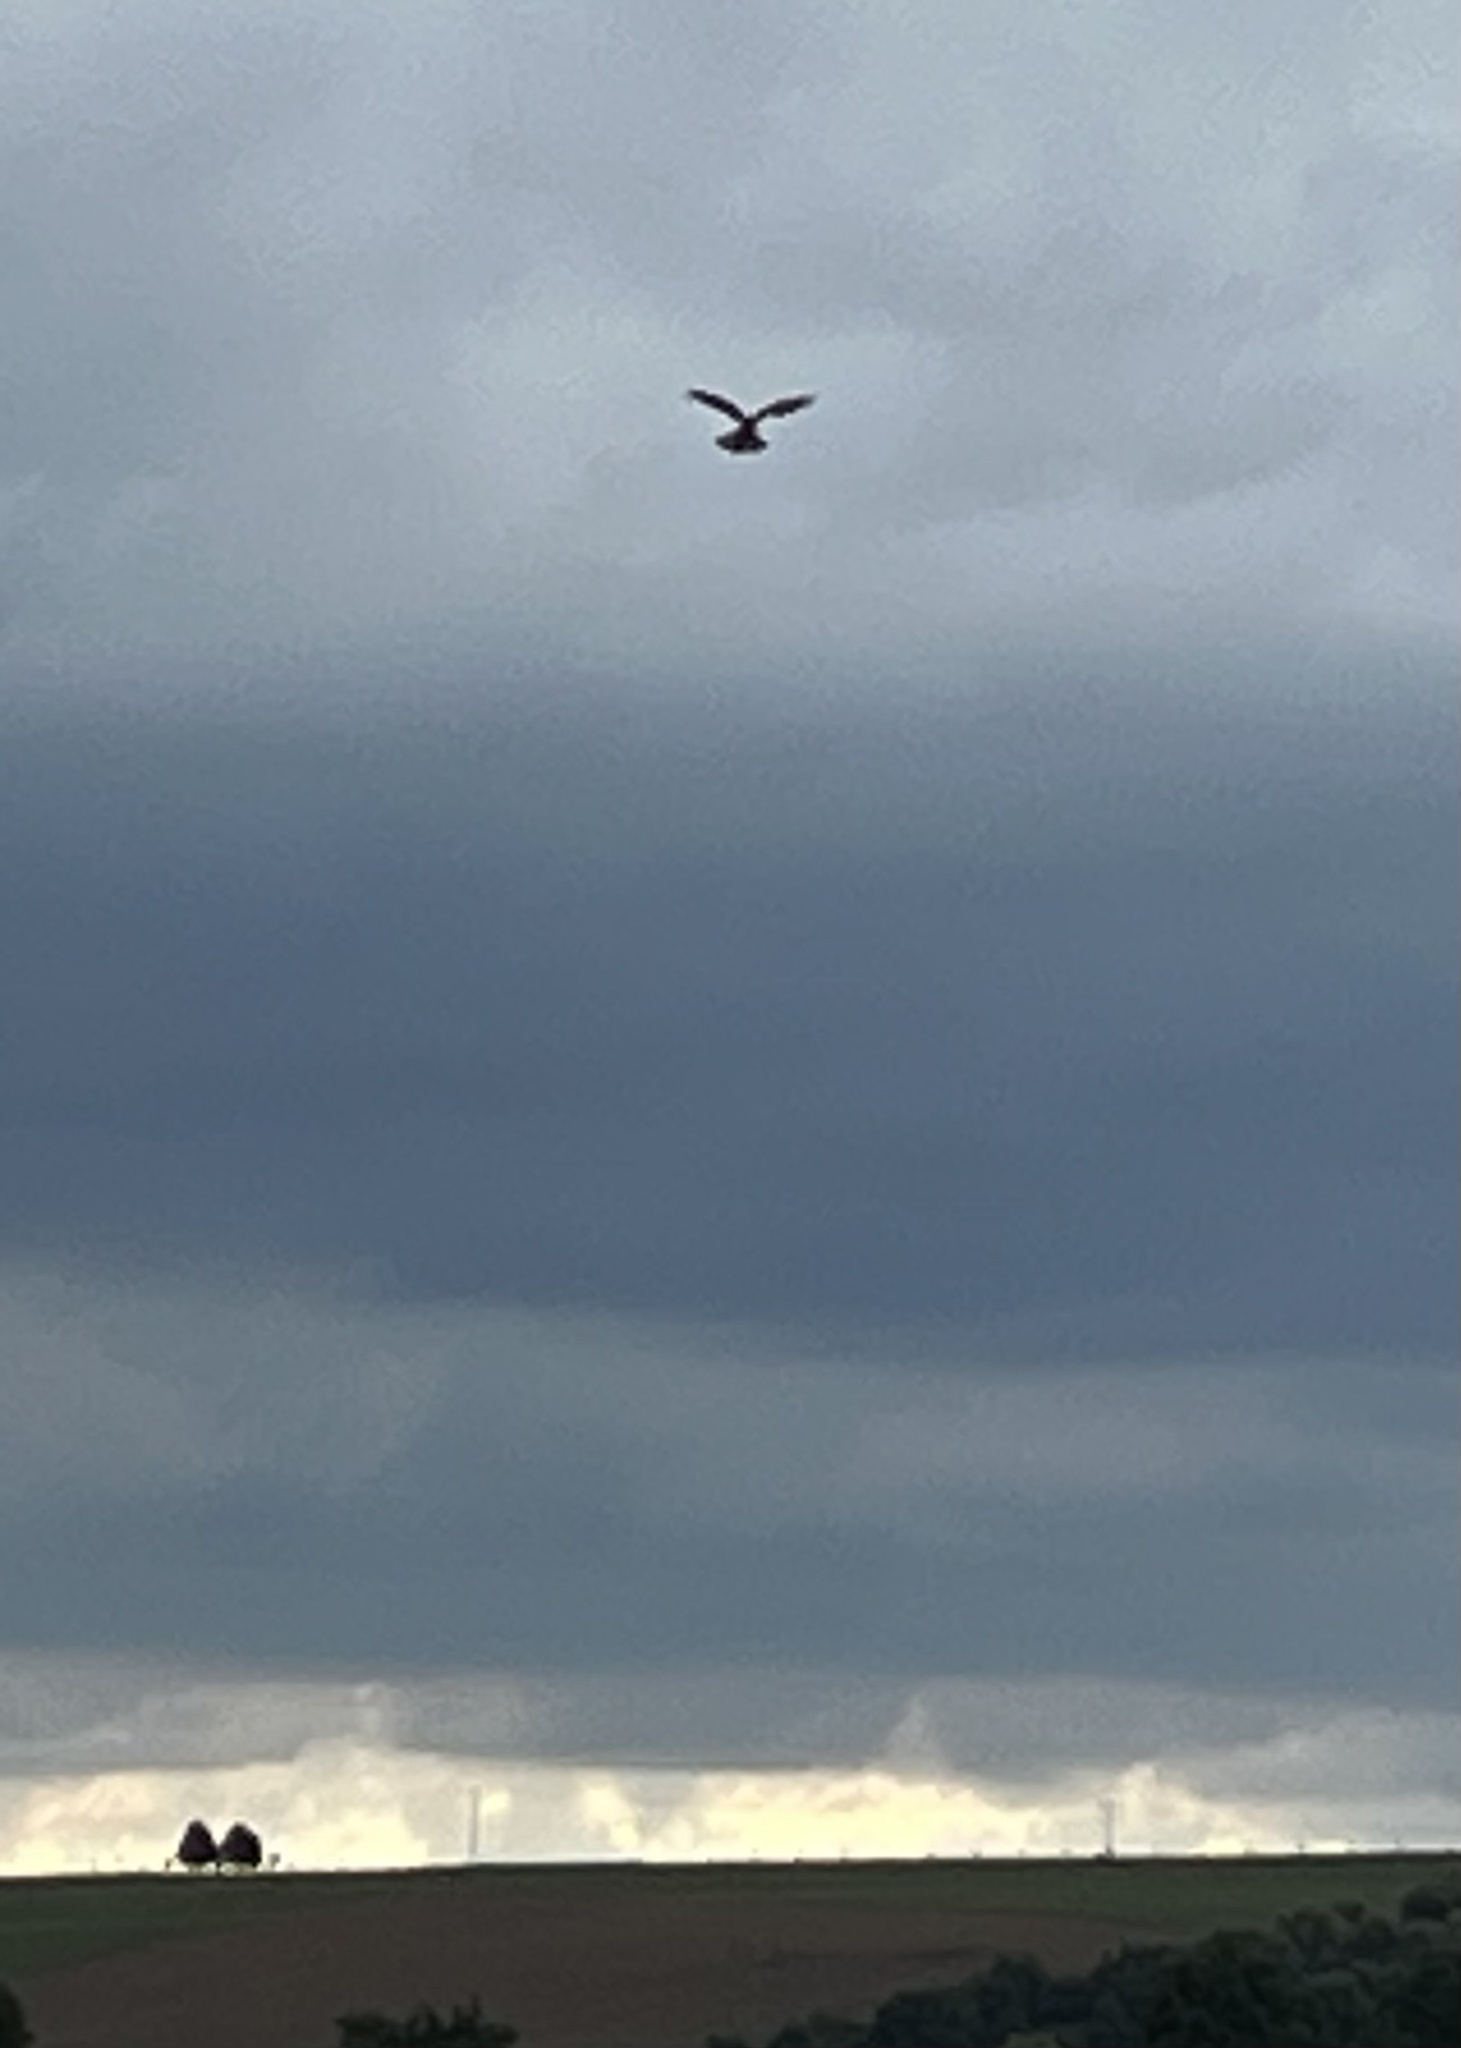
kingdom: Animalia
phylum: Chordata
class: Aves
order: Falconiformes
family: Falconidae
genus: Falco
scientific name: Falco tinnunculus
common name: Common kestrel
